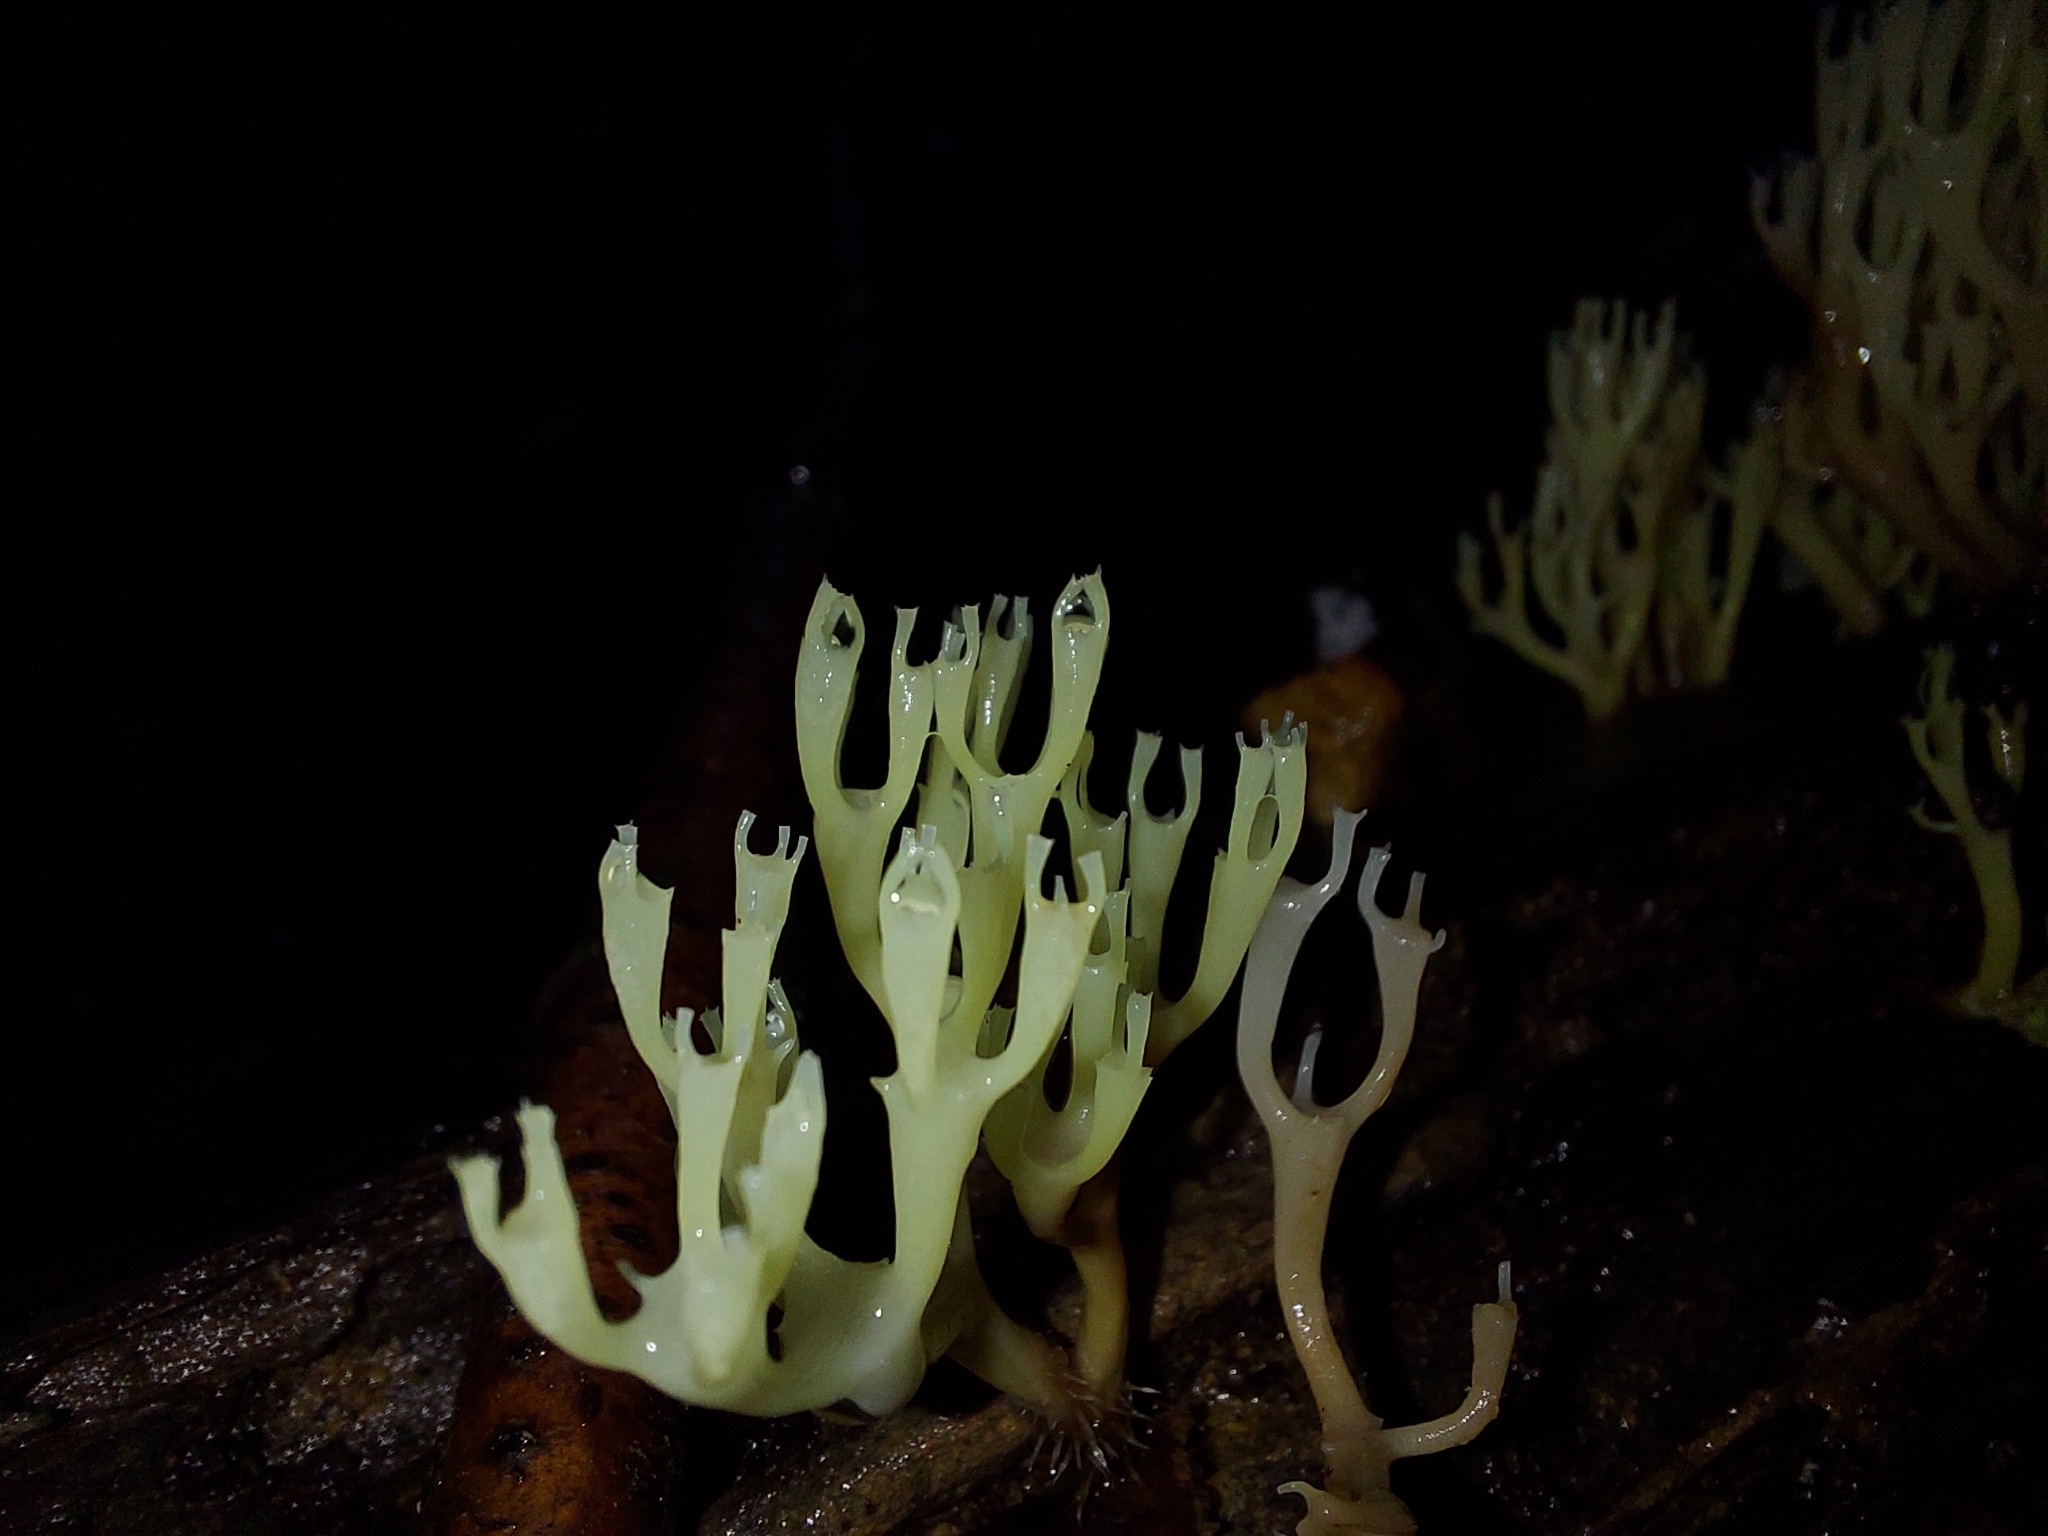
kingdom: Fungi
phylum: Basidiomycota
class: Agaricomycetes
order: Russulales
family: Auriscalpiaceae
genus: Artomyces
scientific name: Artomyces pyxidatus
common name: Crown-tipped coral fungus
